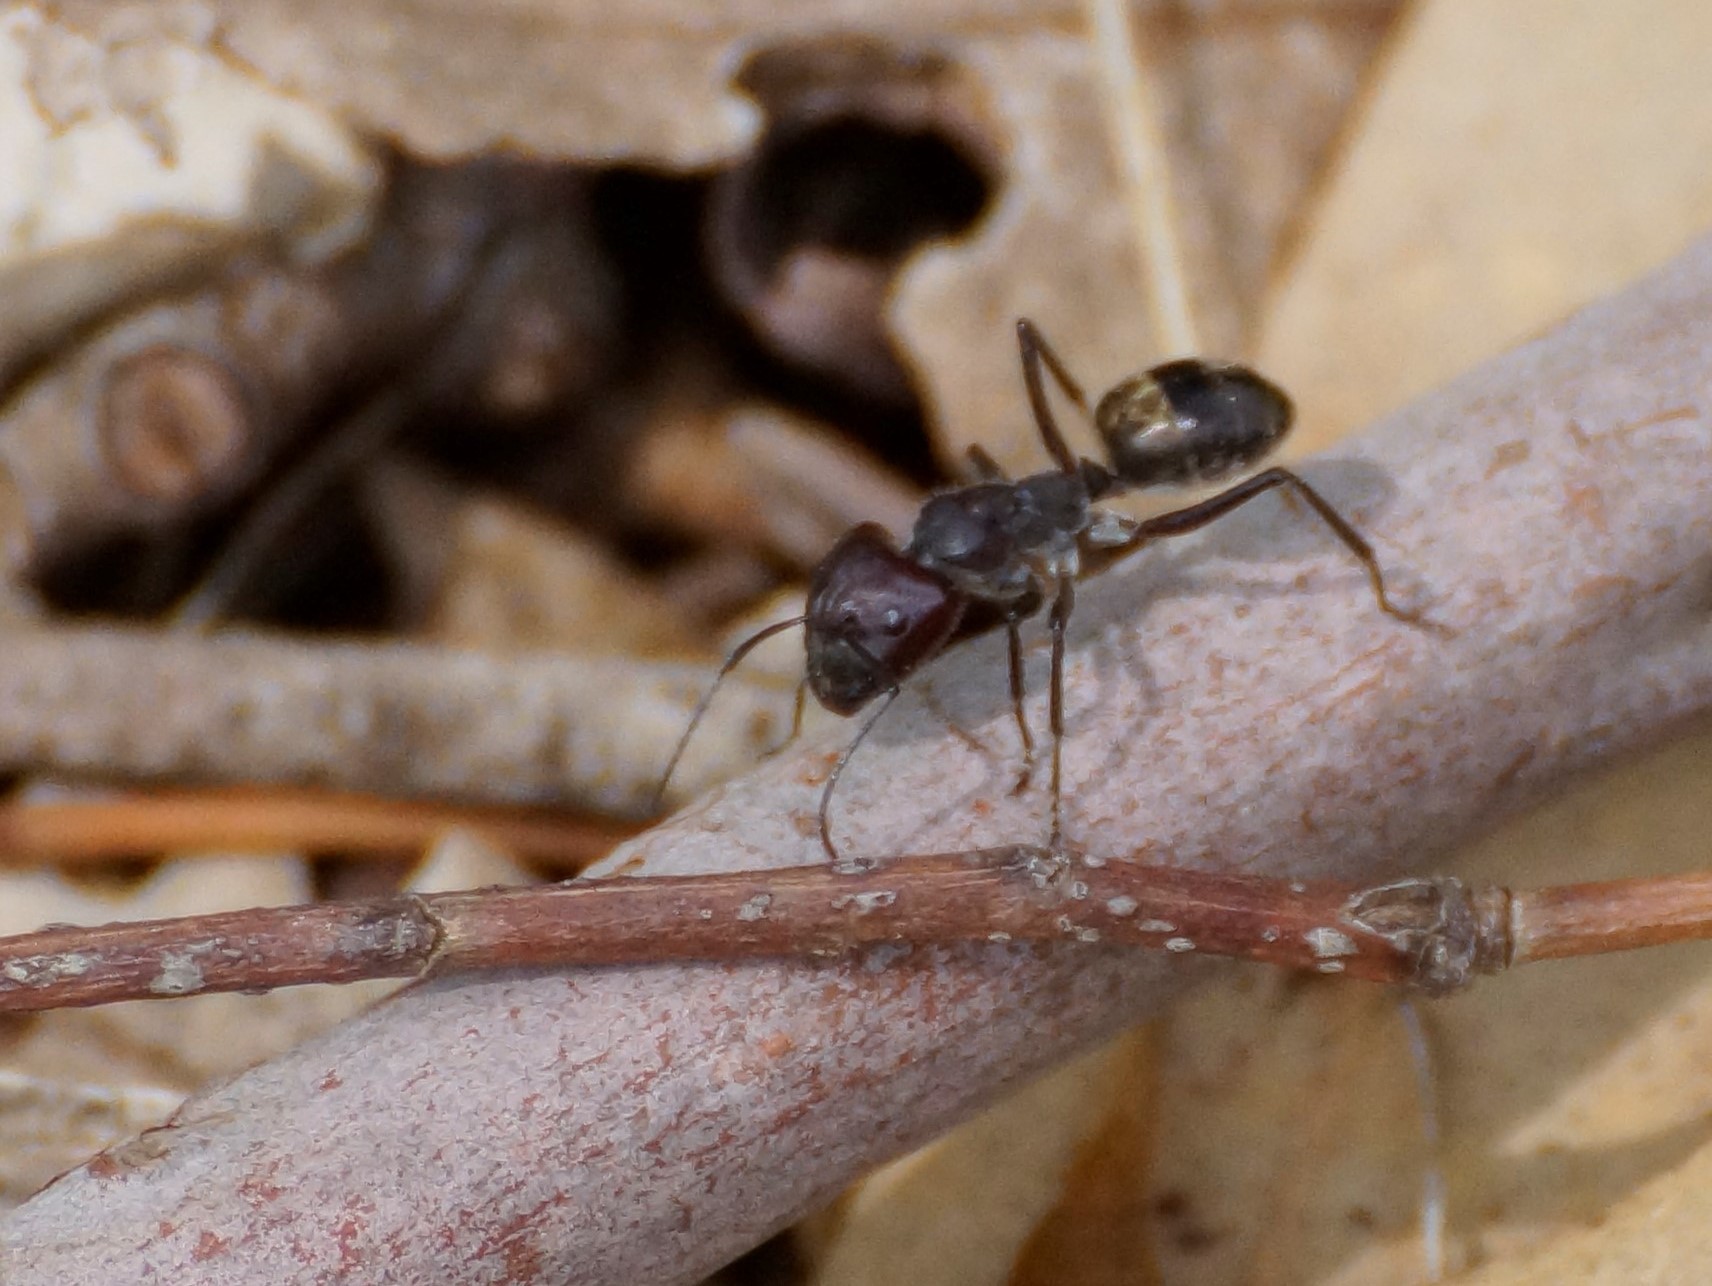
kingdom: Animalia
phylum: Arthropoda
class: Insecta
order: Hymenoptera
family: Formicidae
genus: Camponotus
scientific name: Camponotus suffusus
